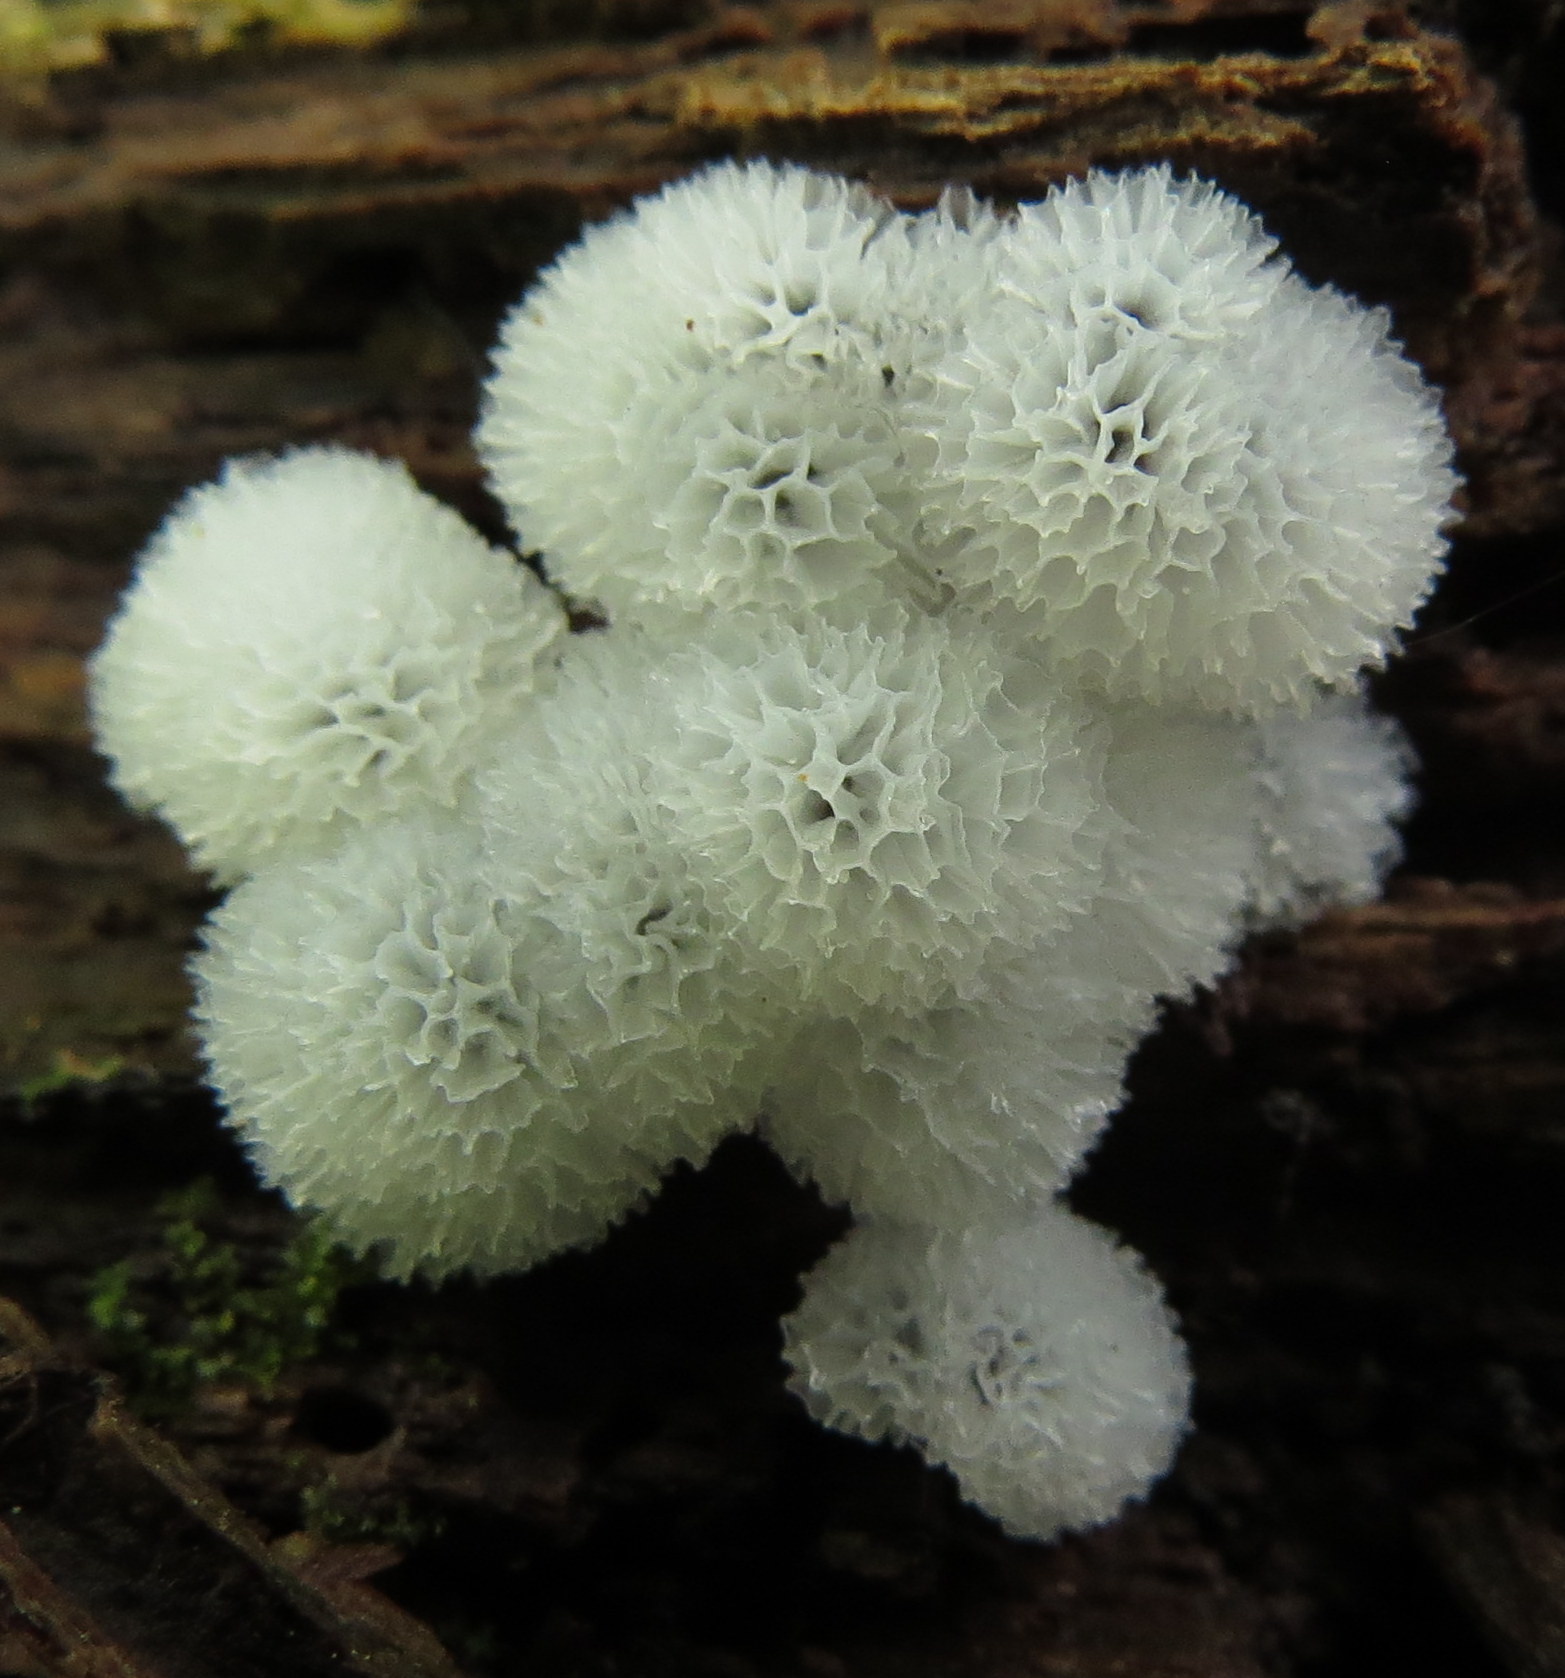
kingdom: Protozoa
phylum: Mycetozoa
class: Protosteliomycetes
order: Ceratiomyxales
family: Ceratiomyxaceae
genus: Ceratiomyxa
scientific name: Ceratiomyxa fruticulosa
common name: Honeycomb coral slime mold
